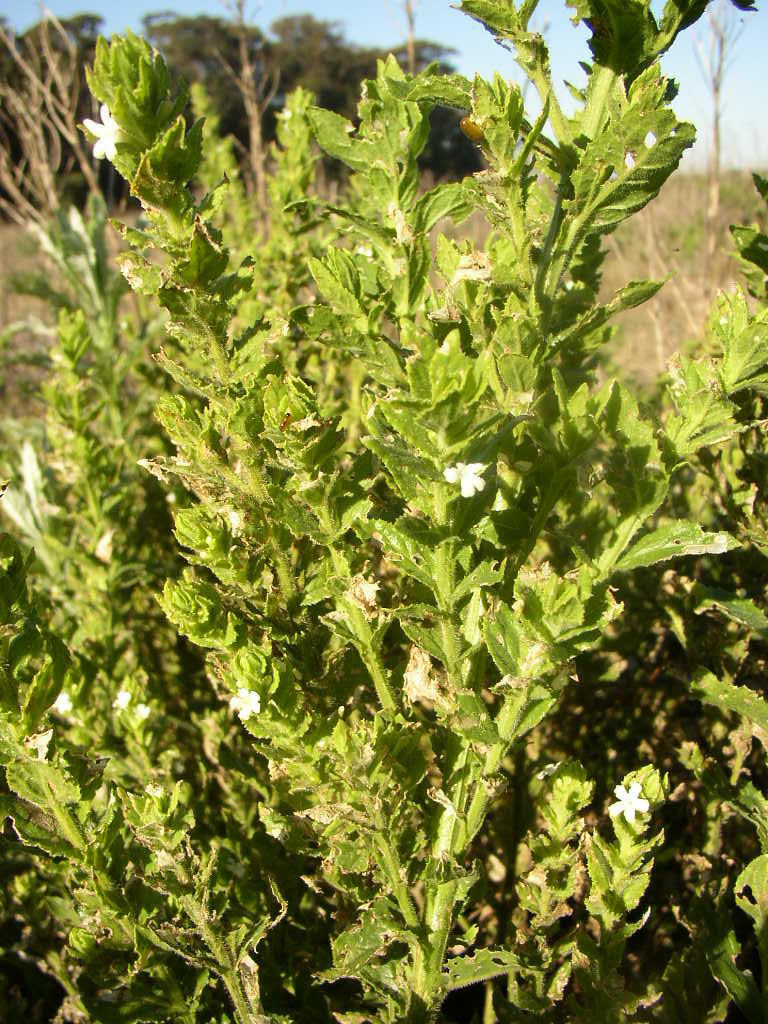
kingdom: Plantae
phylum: Tracheophyta
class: Magnoliopsida
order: Lamiales
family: Scrophulariaceae
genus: Oftia
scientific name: Oftia africana
